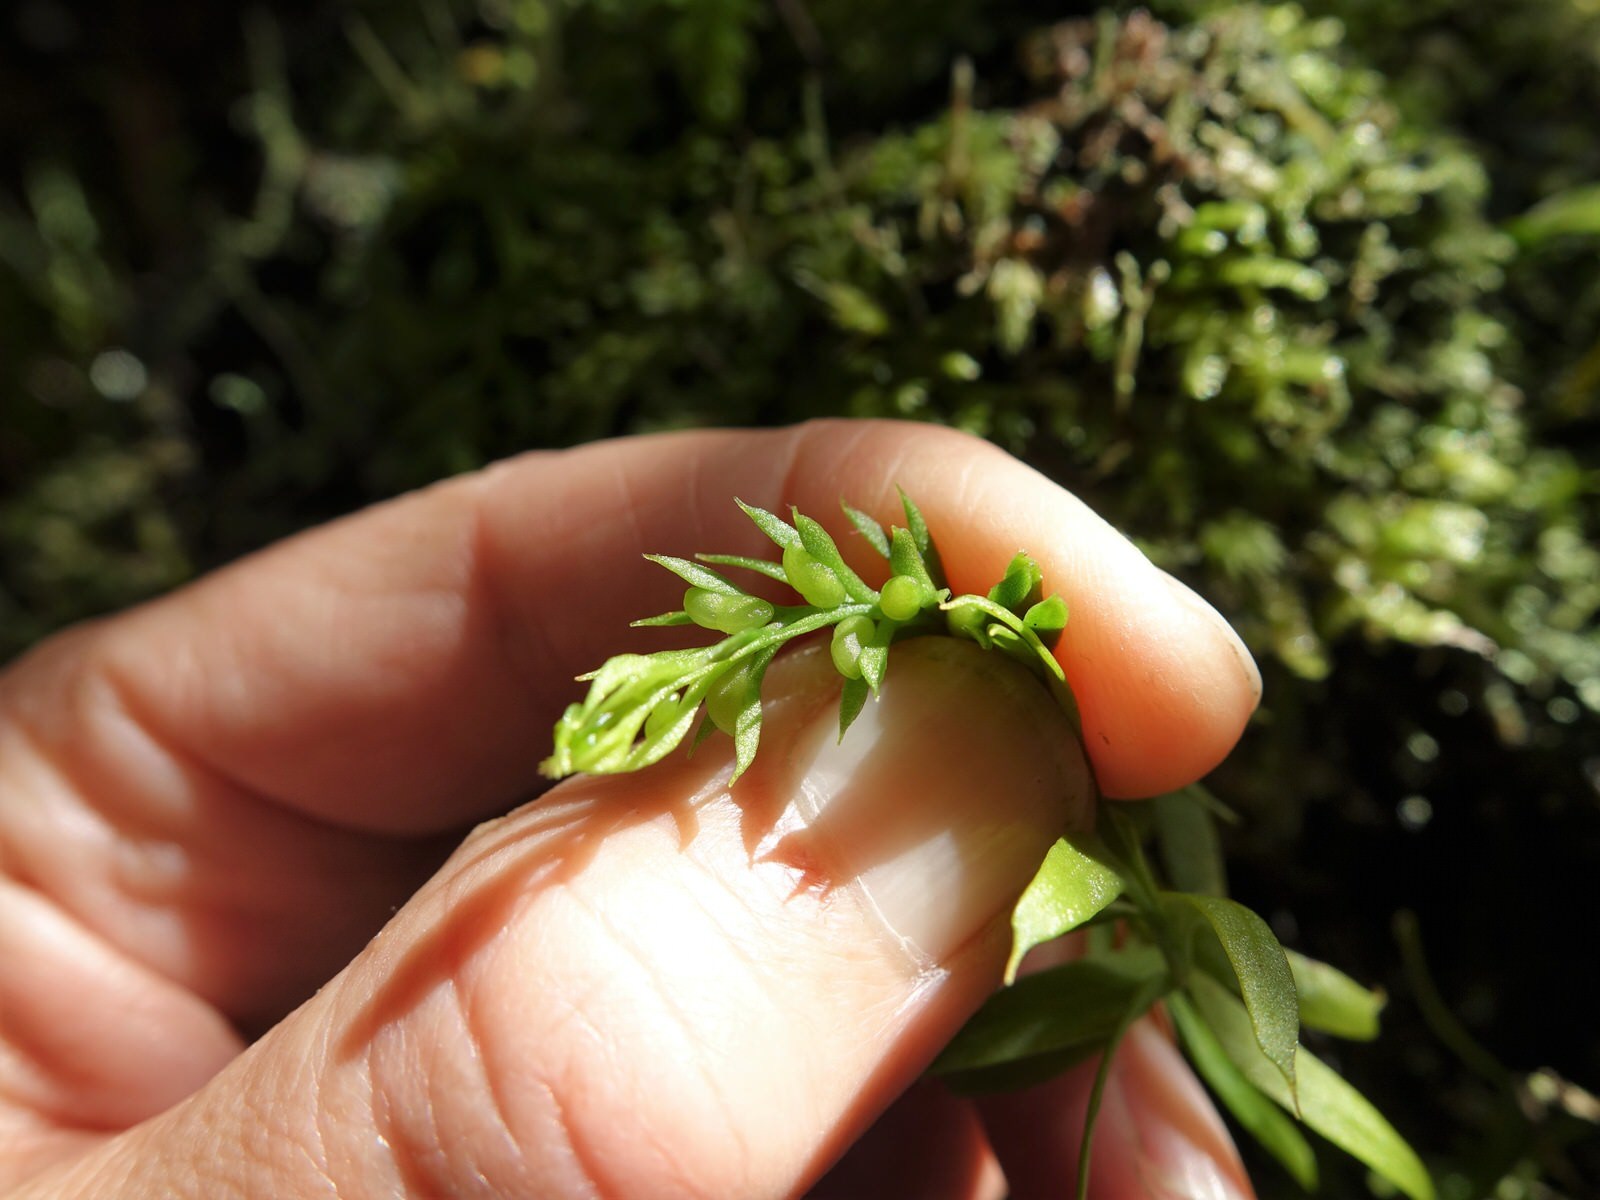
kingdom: Plantae
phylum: Tracheophyta
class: Polypodiopsida
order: Psilotales
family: Psilotaceae
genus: Tmesipteris
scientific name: Tmesipteris elongata
